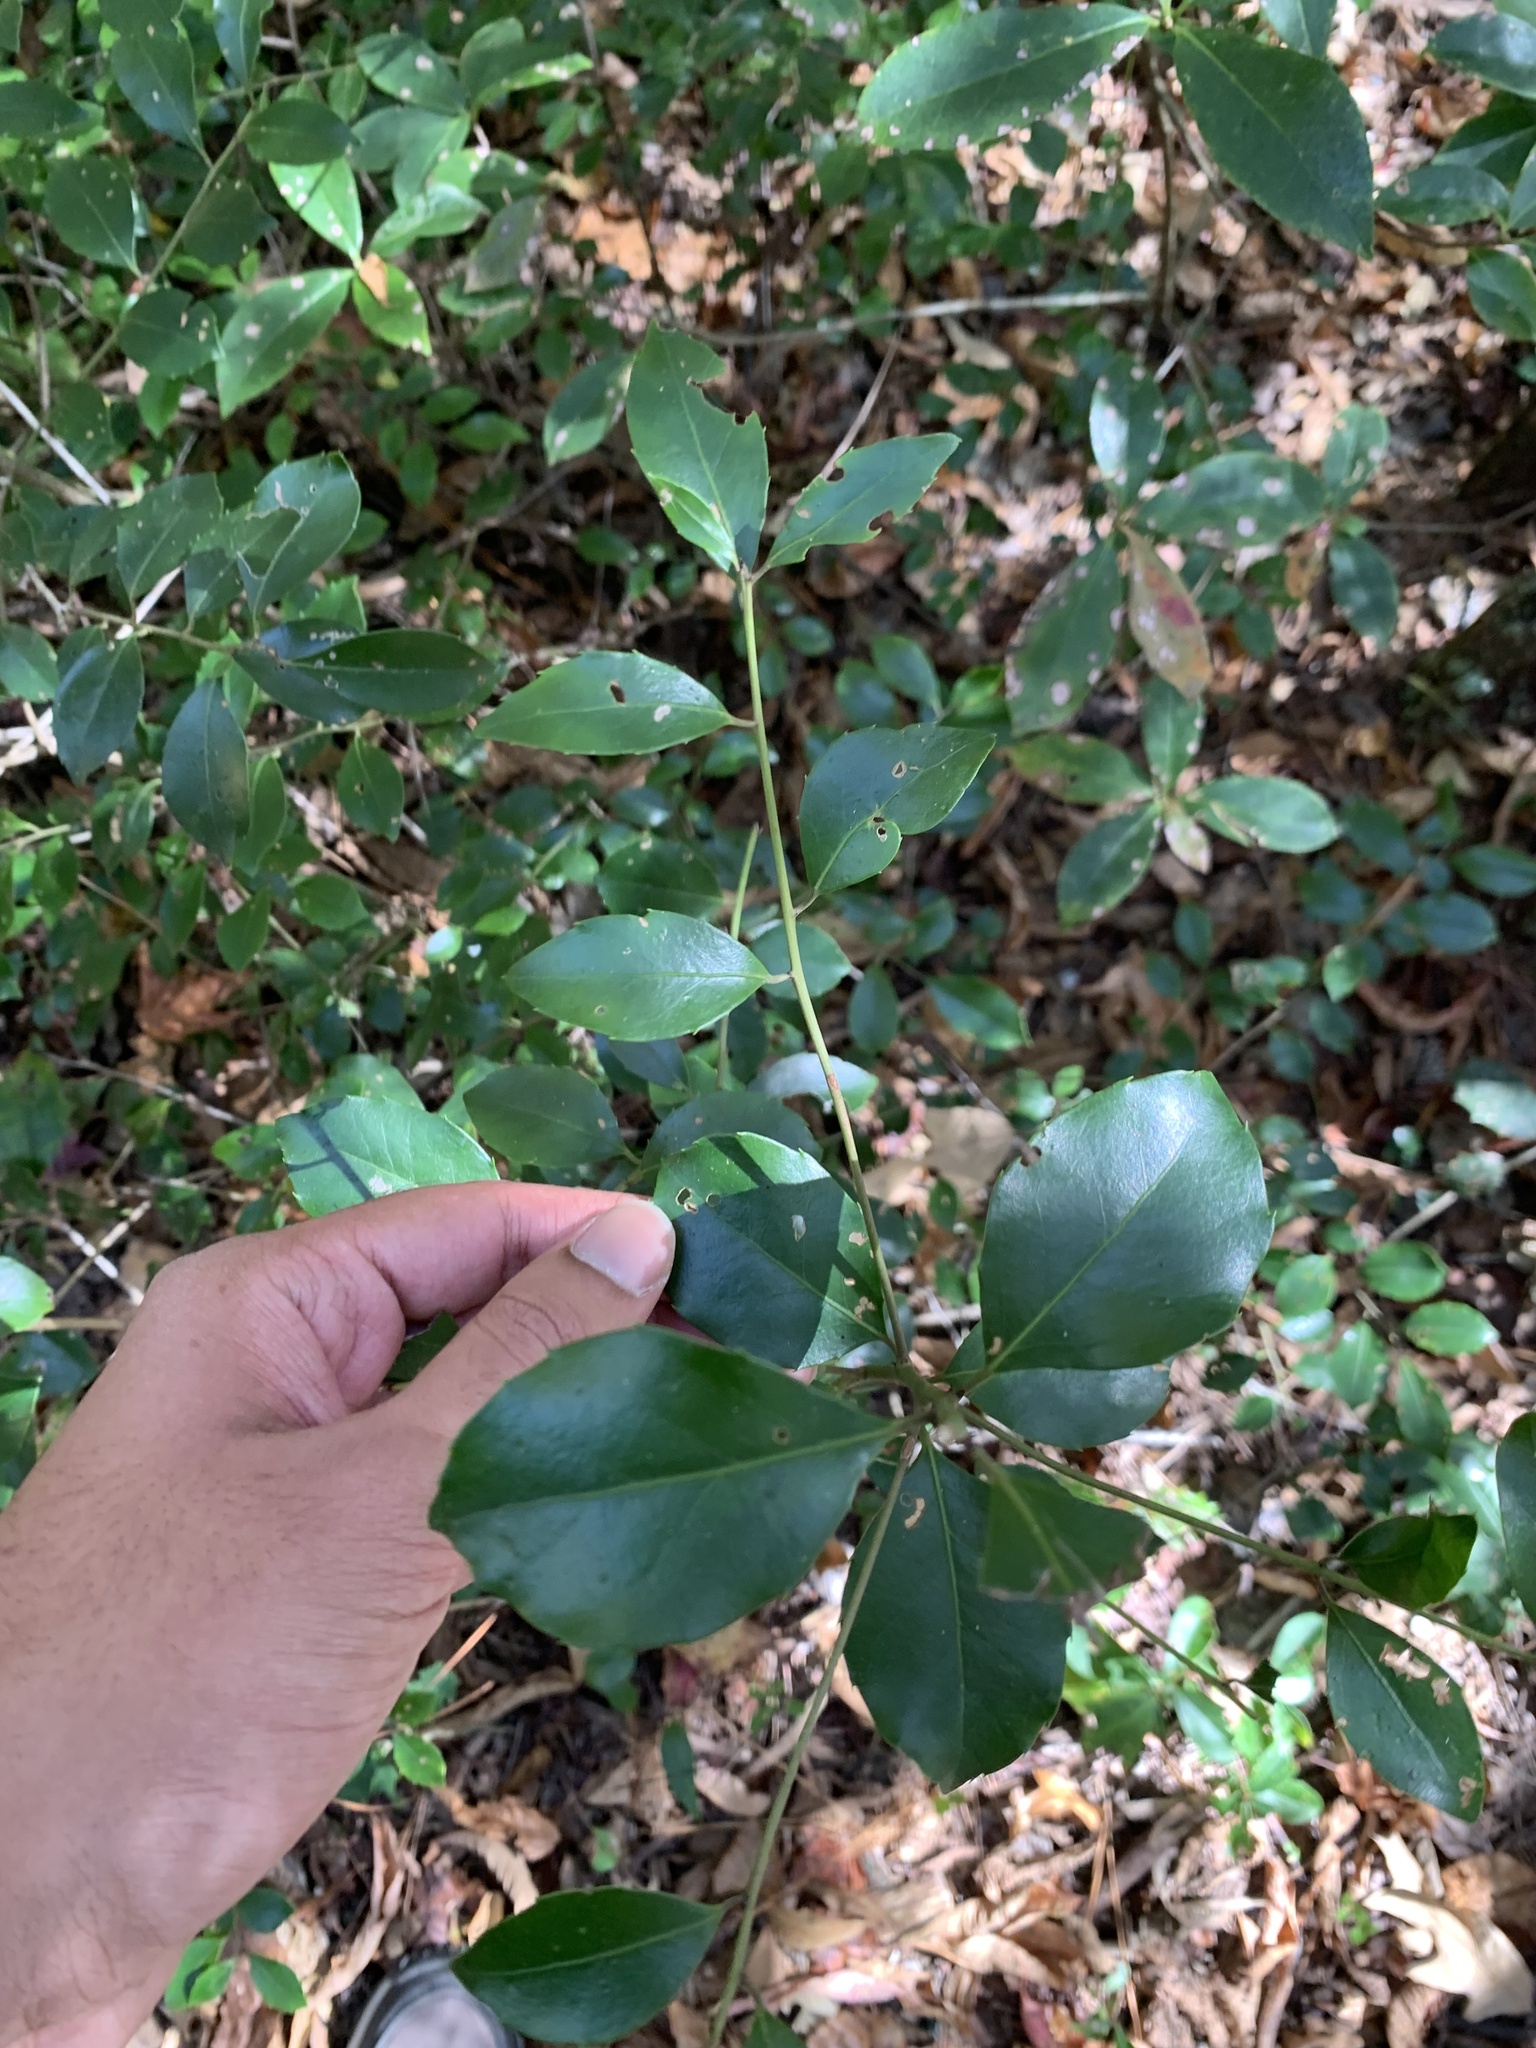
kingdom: Plantae
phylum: Tracheophyta
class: Magnoliopsida
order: Aquifoliales
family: Aquifoliaceae
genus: Ilex
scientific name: Ilex coriacea
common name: Sweet gallberry
